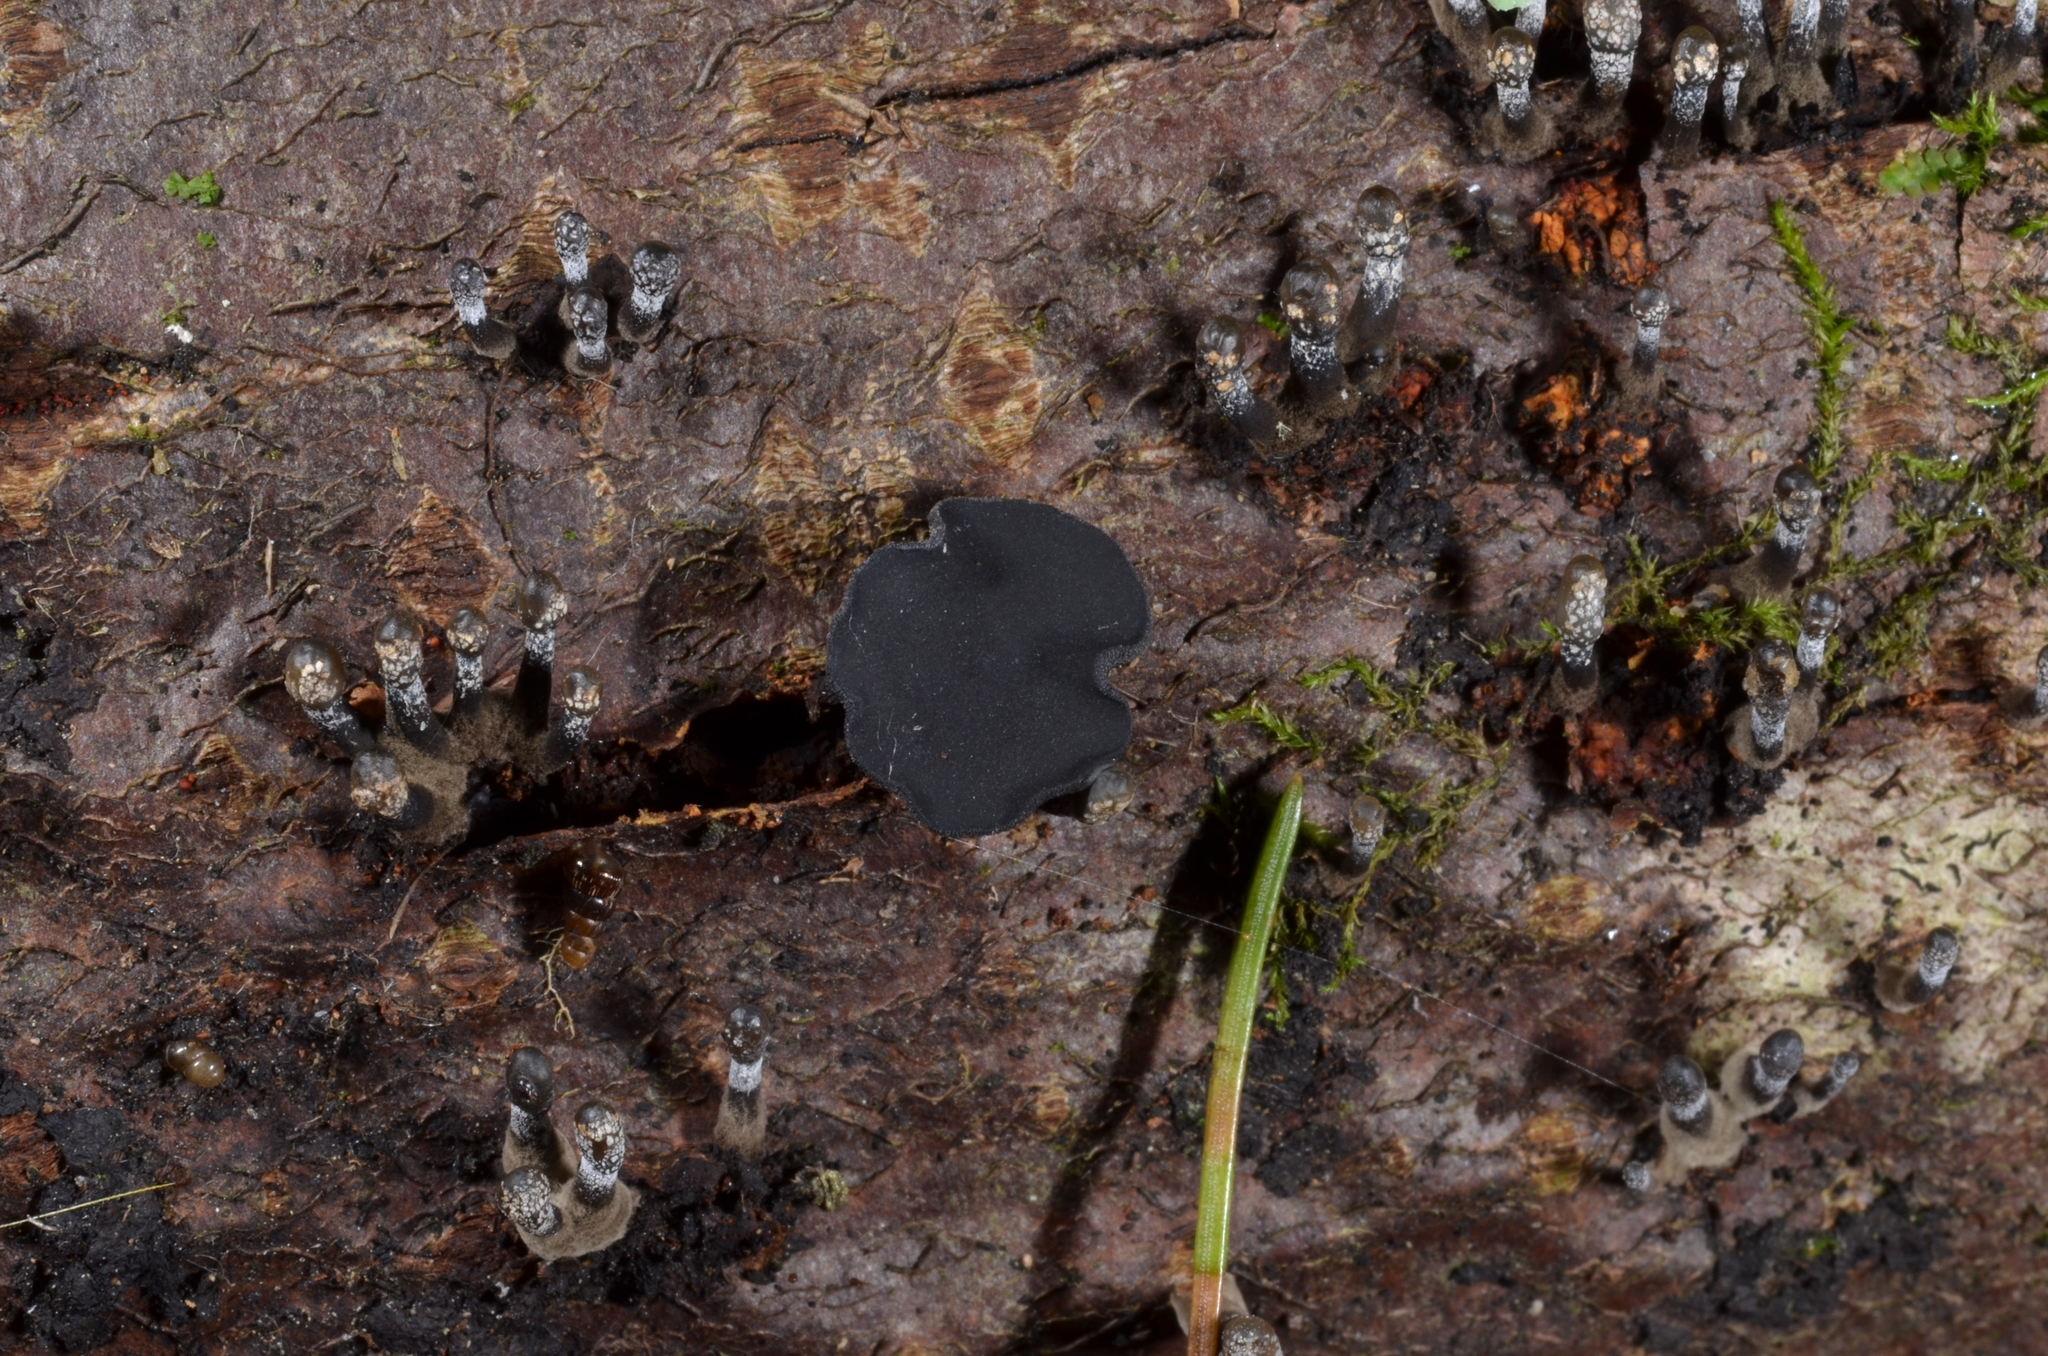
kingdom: Fungi
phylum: Ascomycota
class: Leotiomycetes
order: Helotiales
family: Bulgariaceae
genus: Holwaya
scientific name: Holwaya mucida
